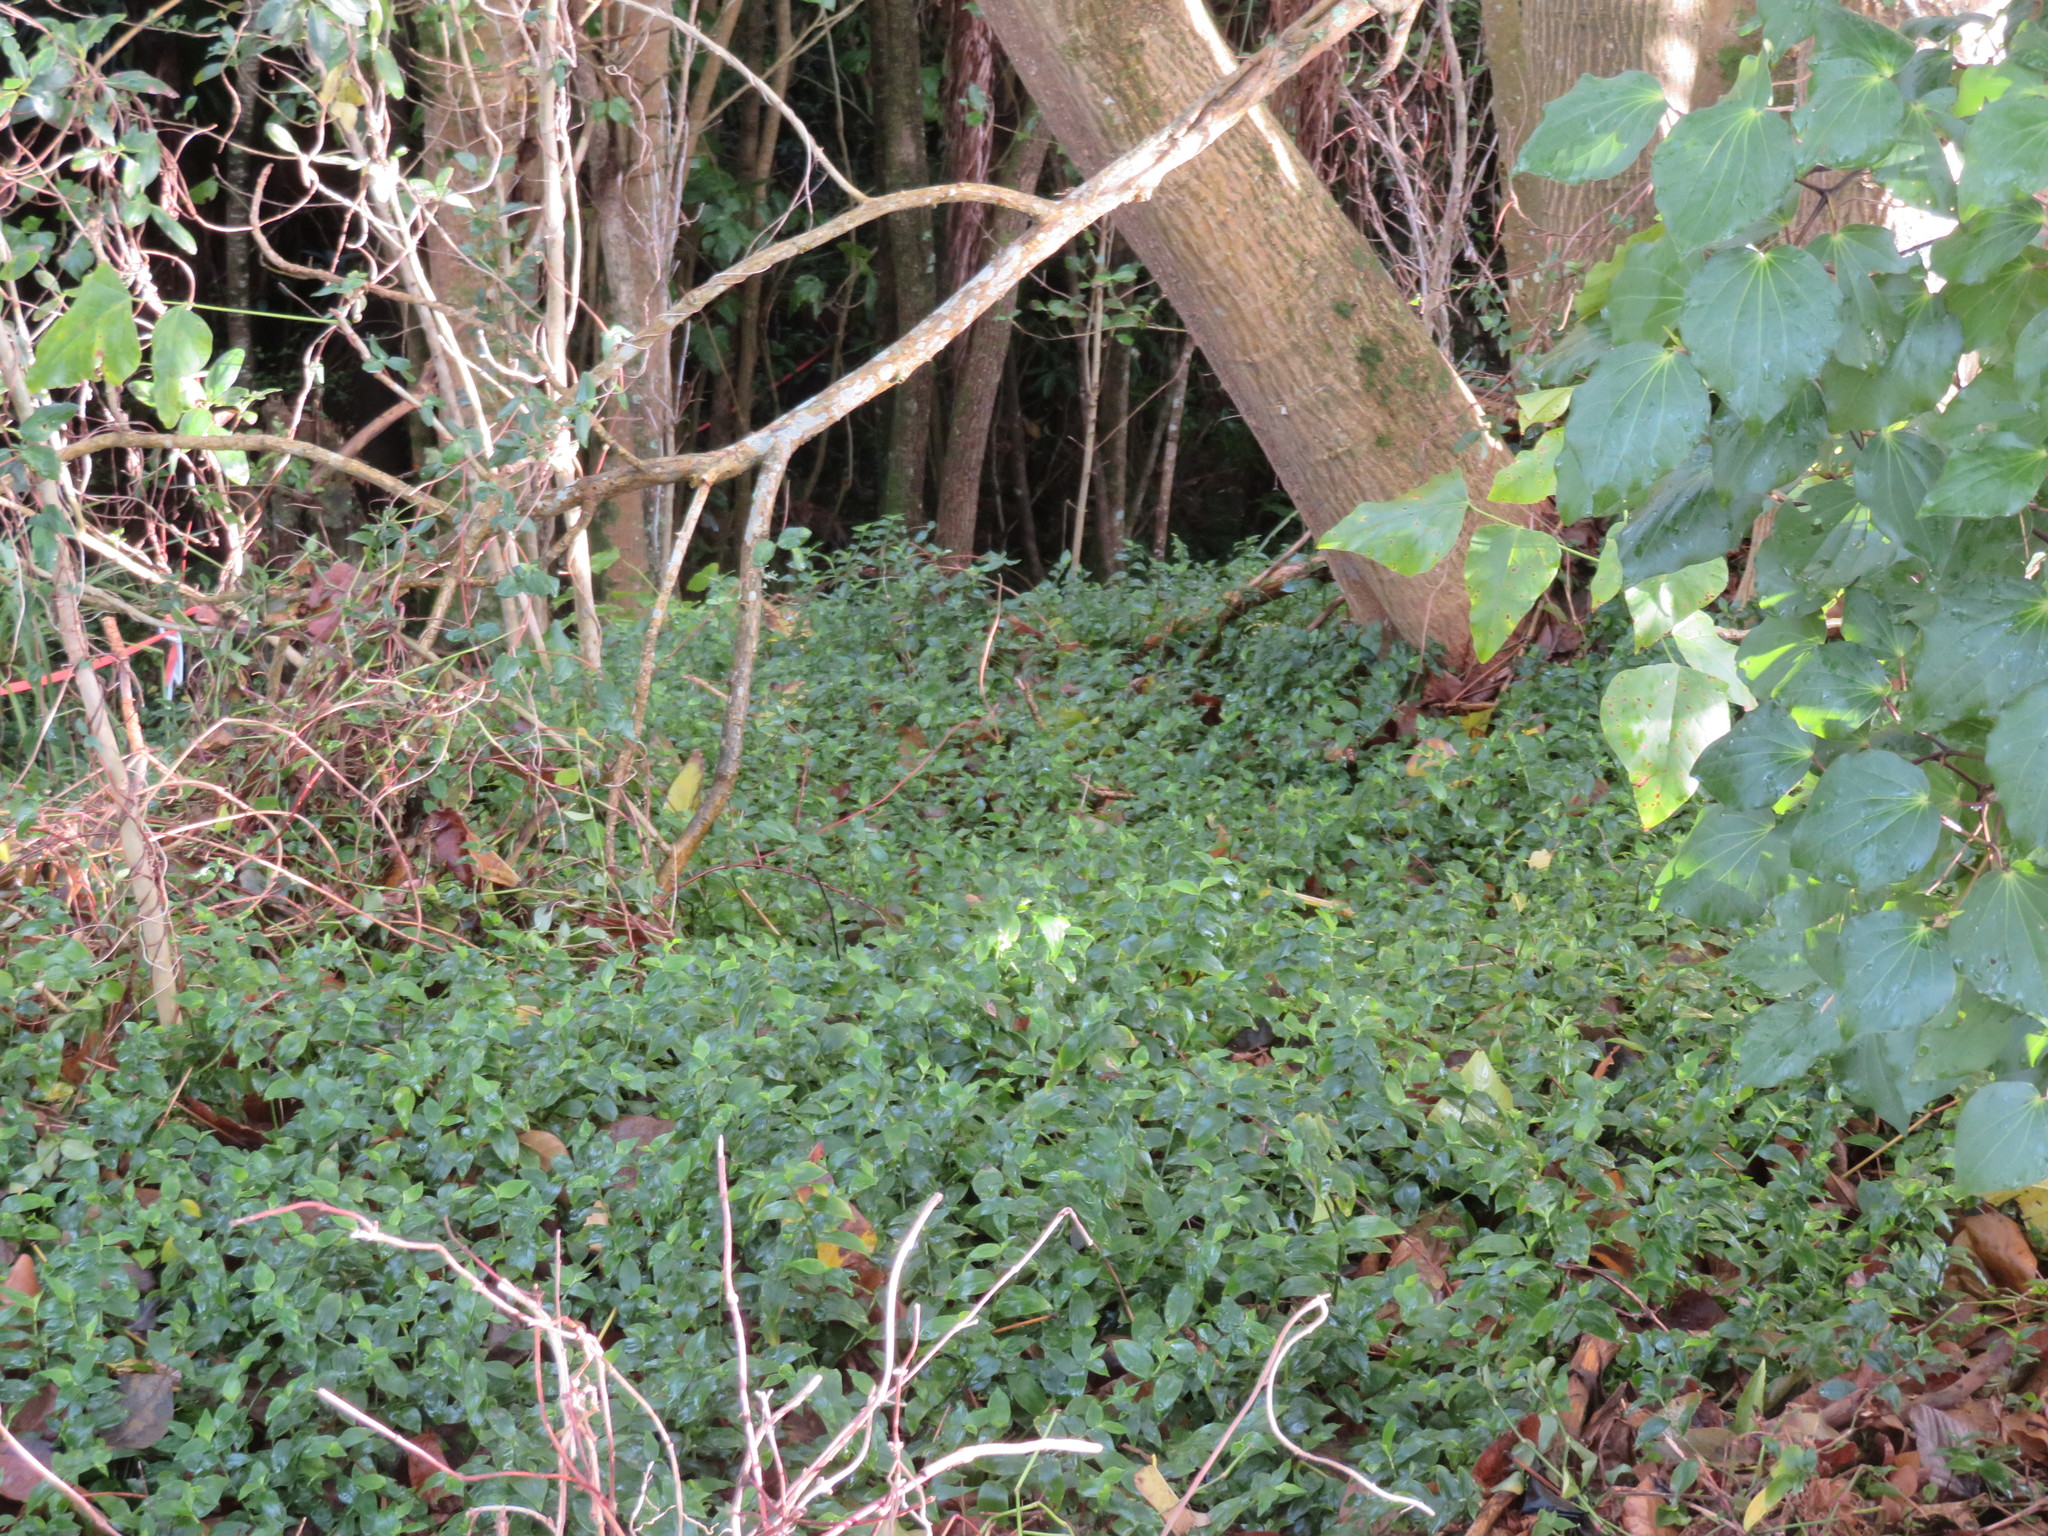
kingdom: Plantae
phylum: Tracheophyta
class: Magnoliopsida
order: Dipsacales
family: Caprifoliaceae
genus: Lonicera
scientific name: Lonicera japonica
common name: Japanese honeysuckle
